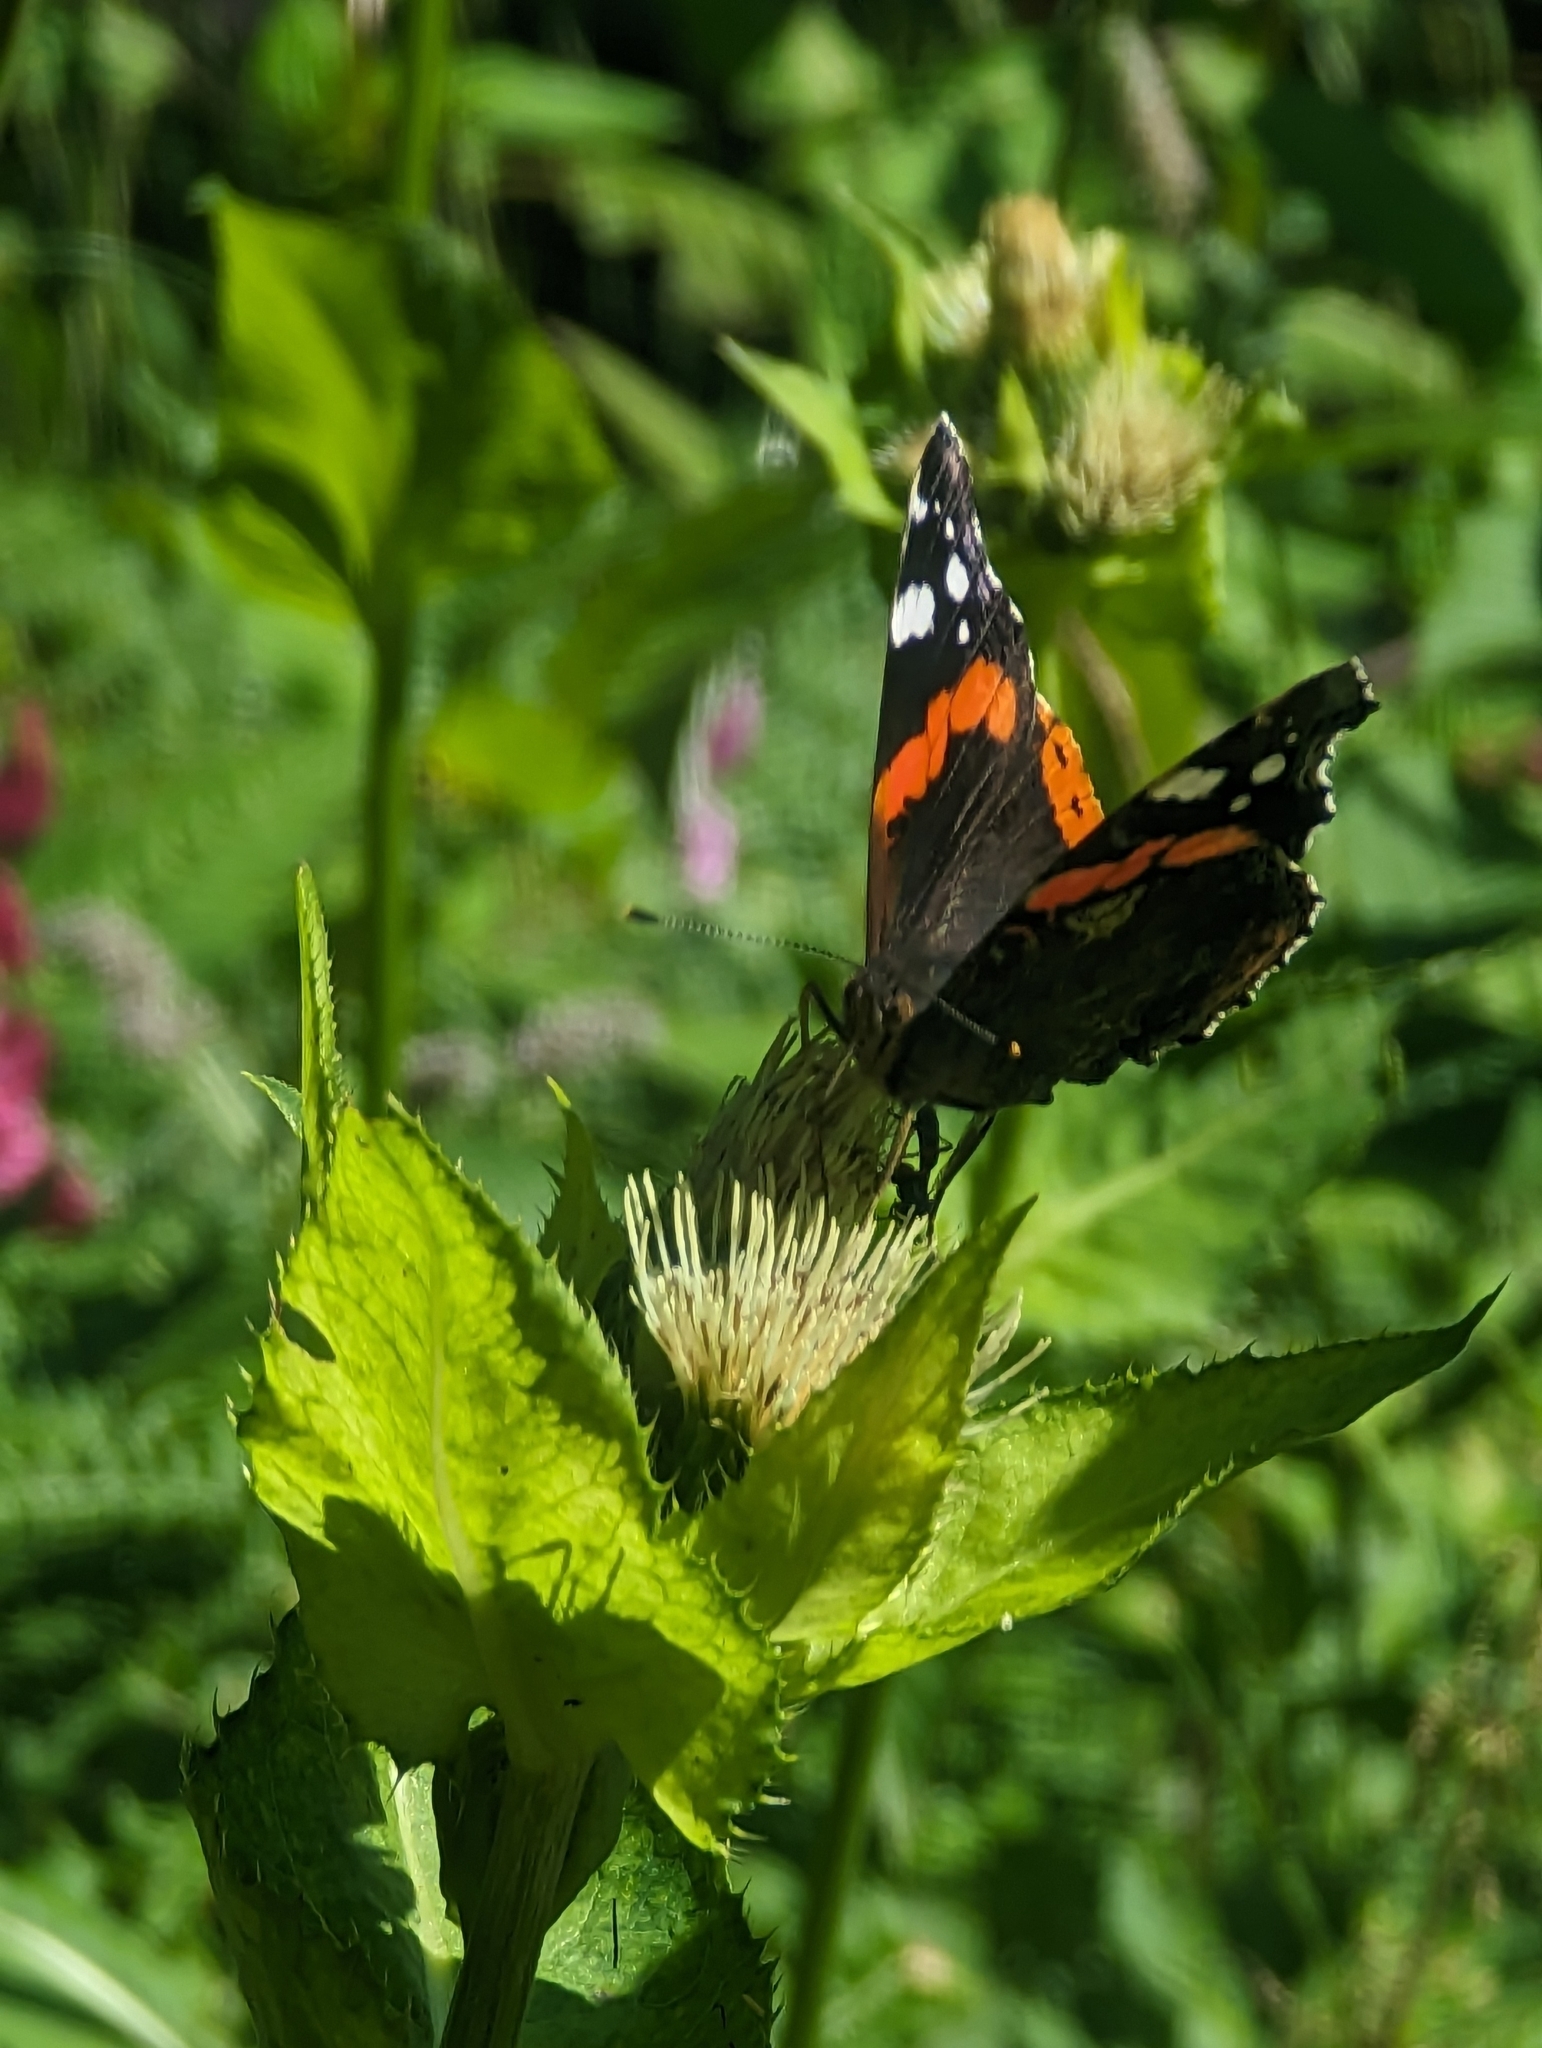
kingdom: Animalia
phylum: Arthropoda
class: Insecta
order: Lepidoptera
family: Nymphalidae
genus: Vanessa
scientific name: Vanessa atalanta
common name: Red admiral
